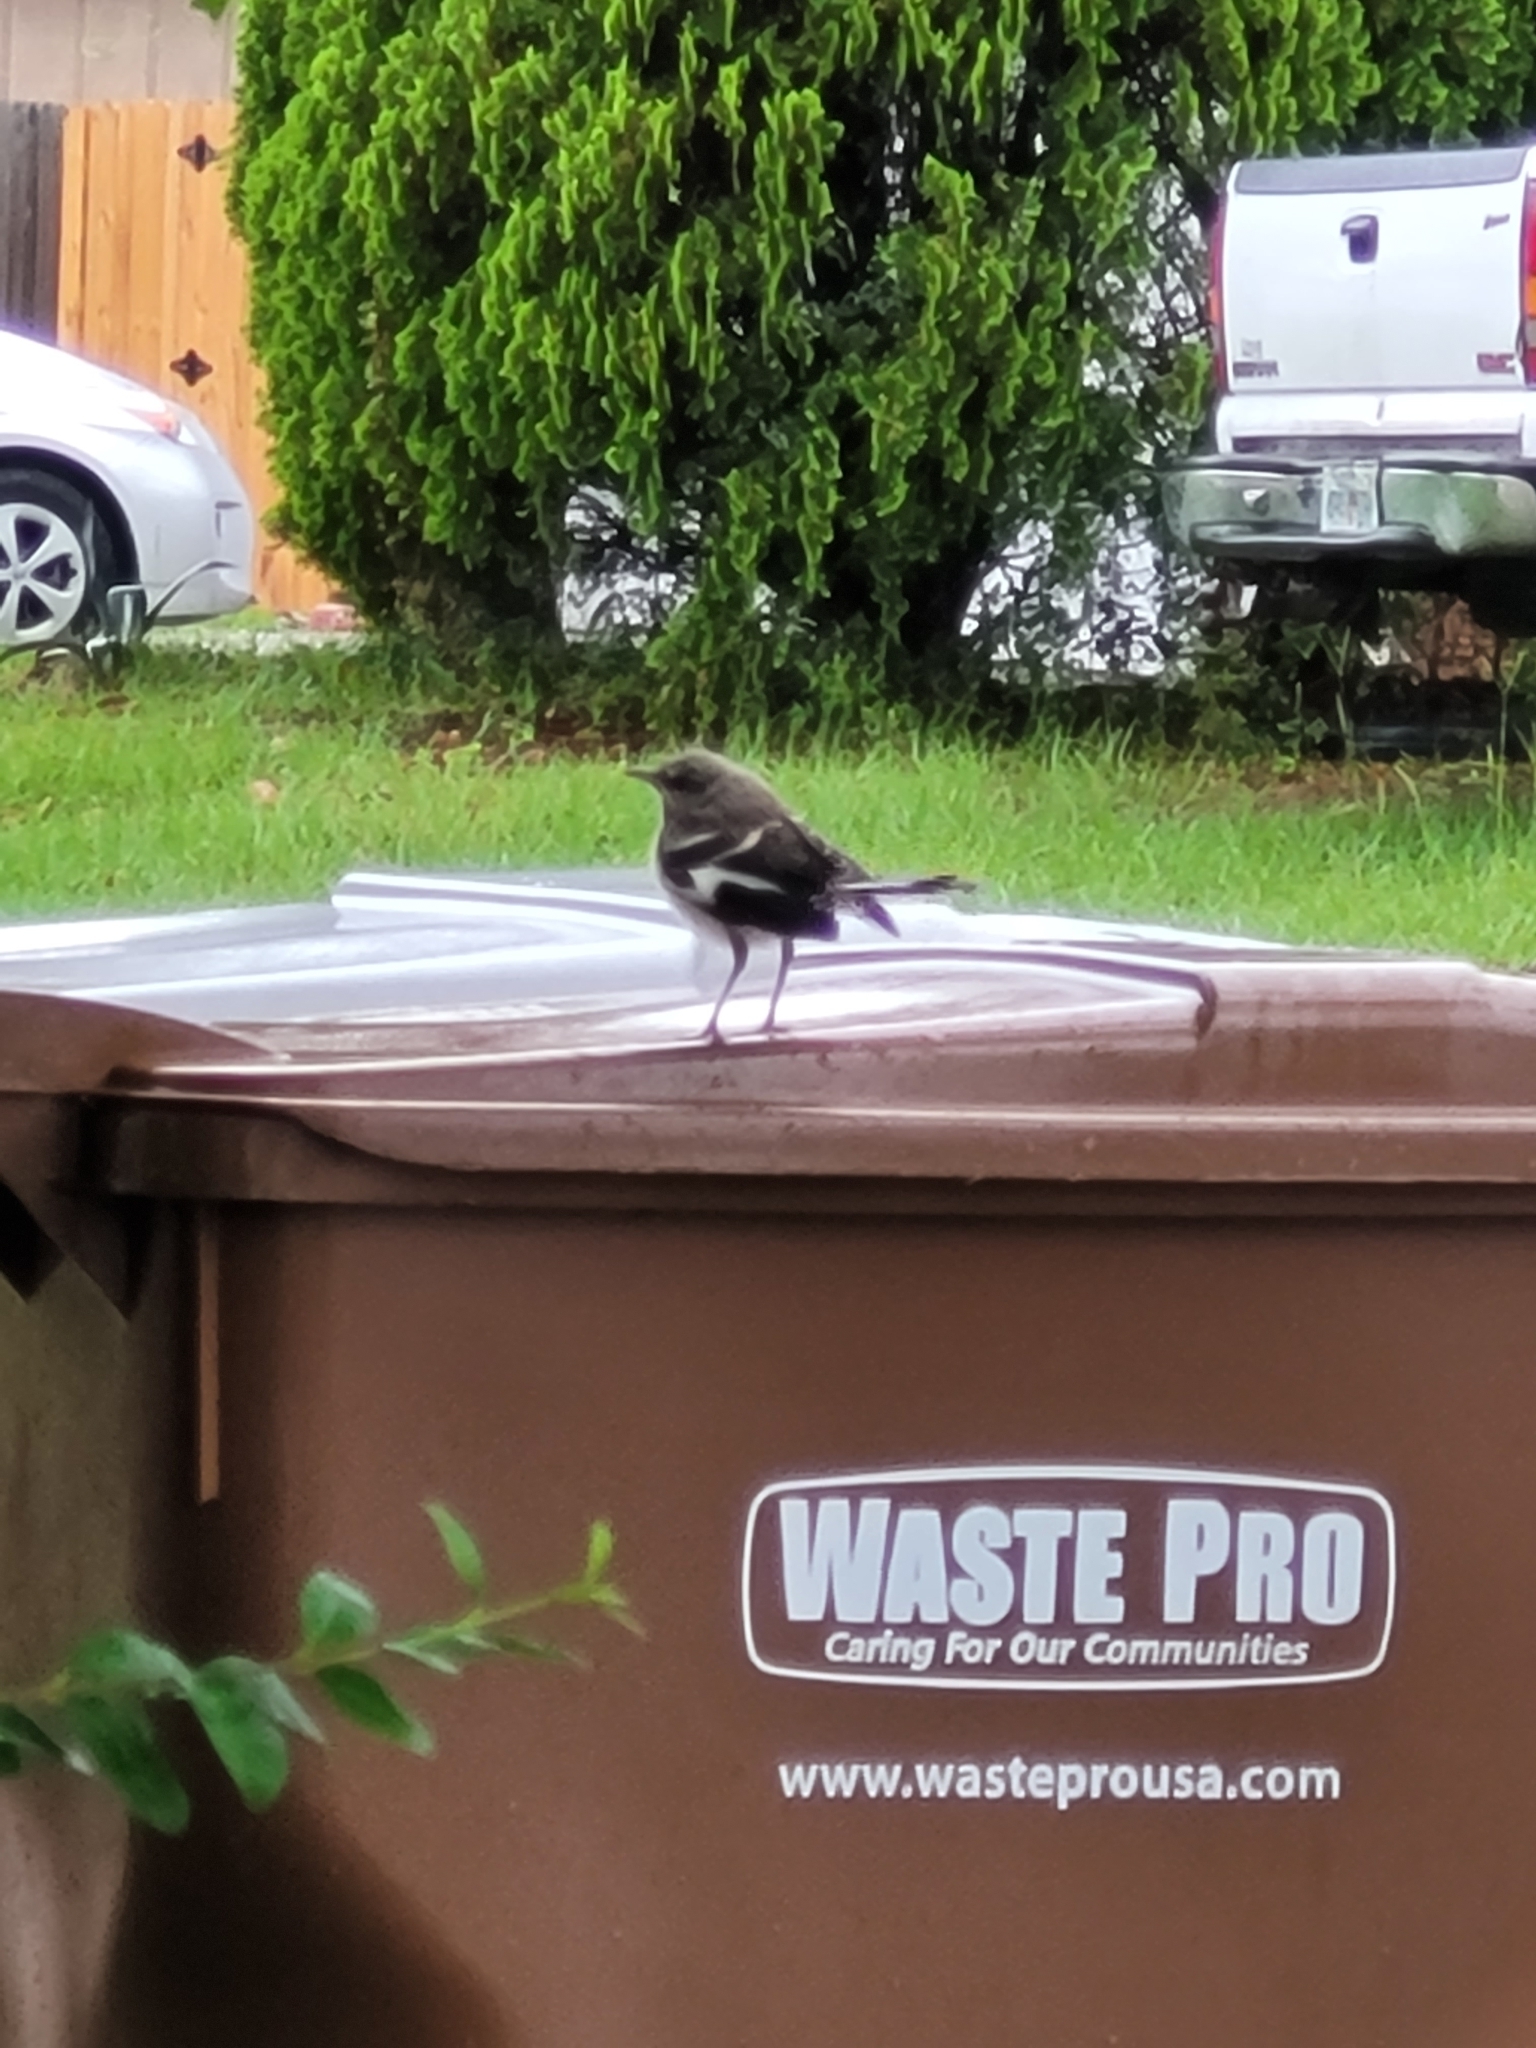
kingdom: Animalia
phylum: Chordata
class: Aves
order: Passeriformes
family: Mimidae
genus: Mimus
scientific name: Mimus polyglottos
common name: Northern mockingbird
